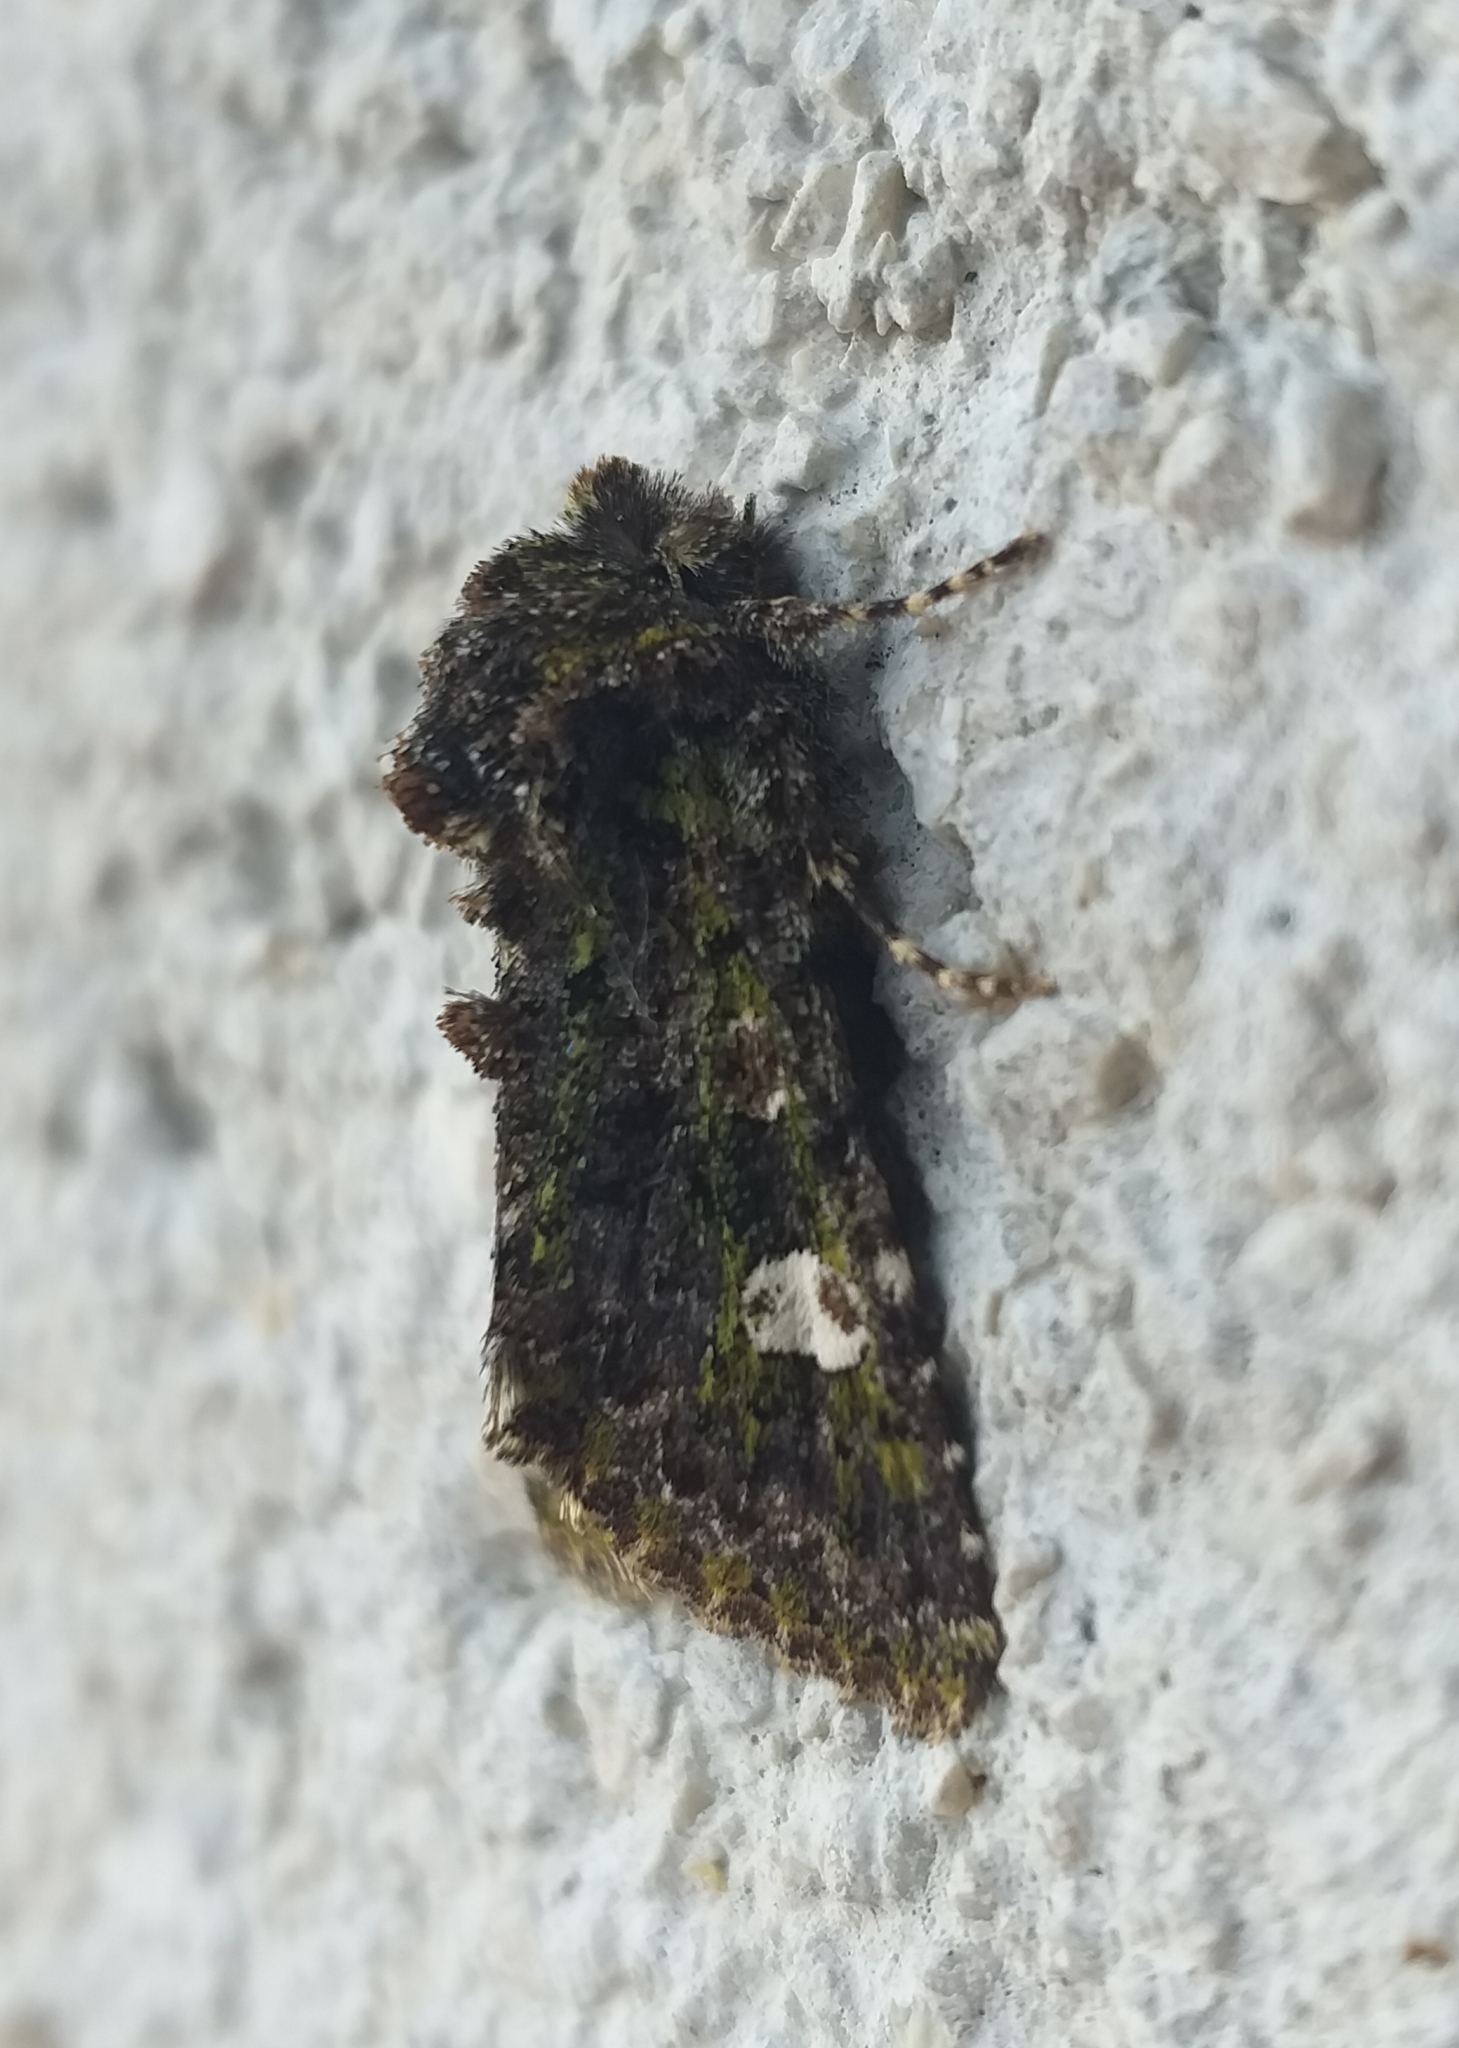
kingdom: Animalia
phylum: Arthropoda
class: Insecta
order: Lepidoptera
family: Noctuidae
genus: Valeria
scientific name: Valeria oleagina
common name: Green-brindled dot
